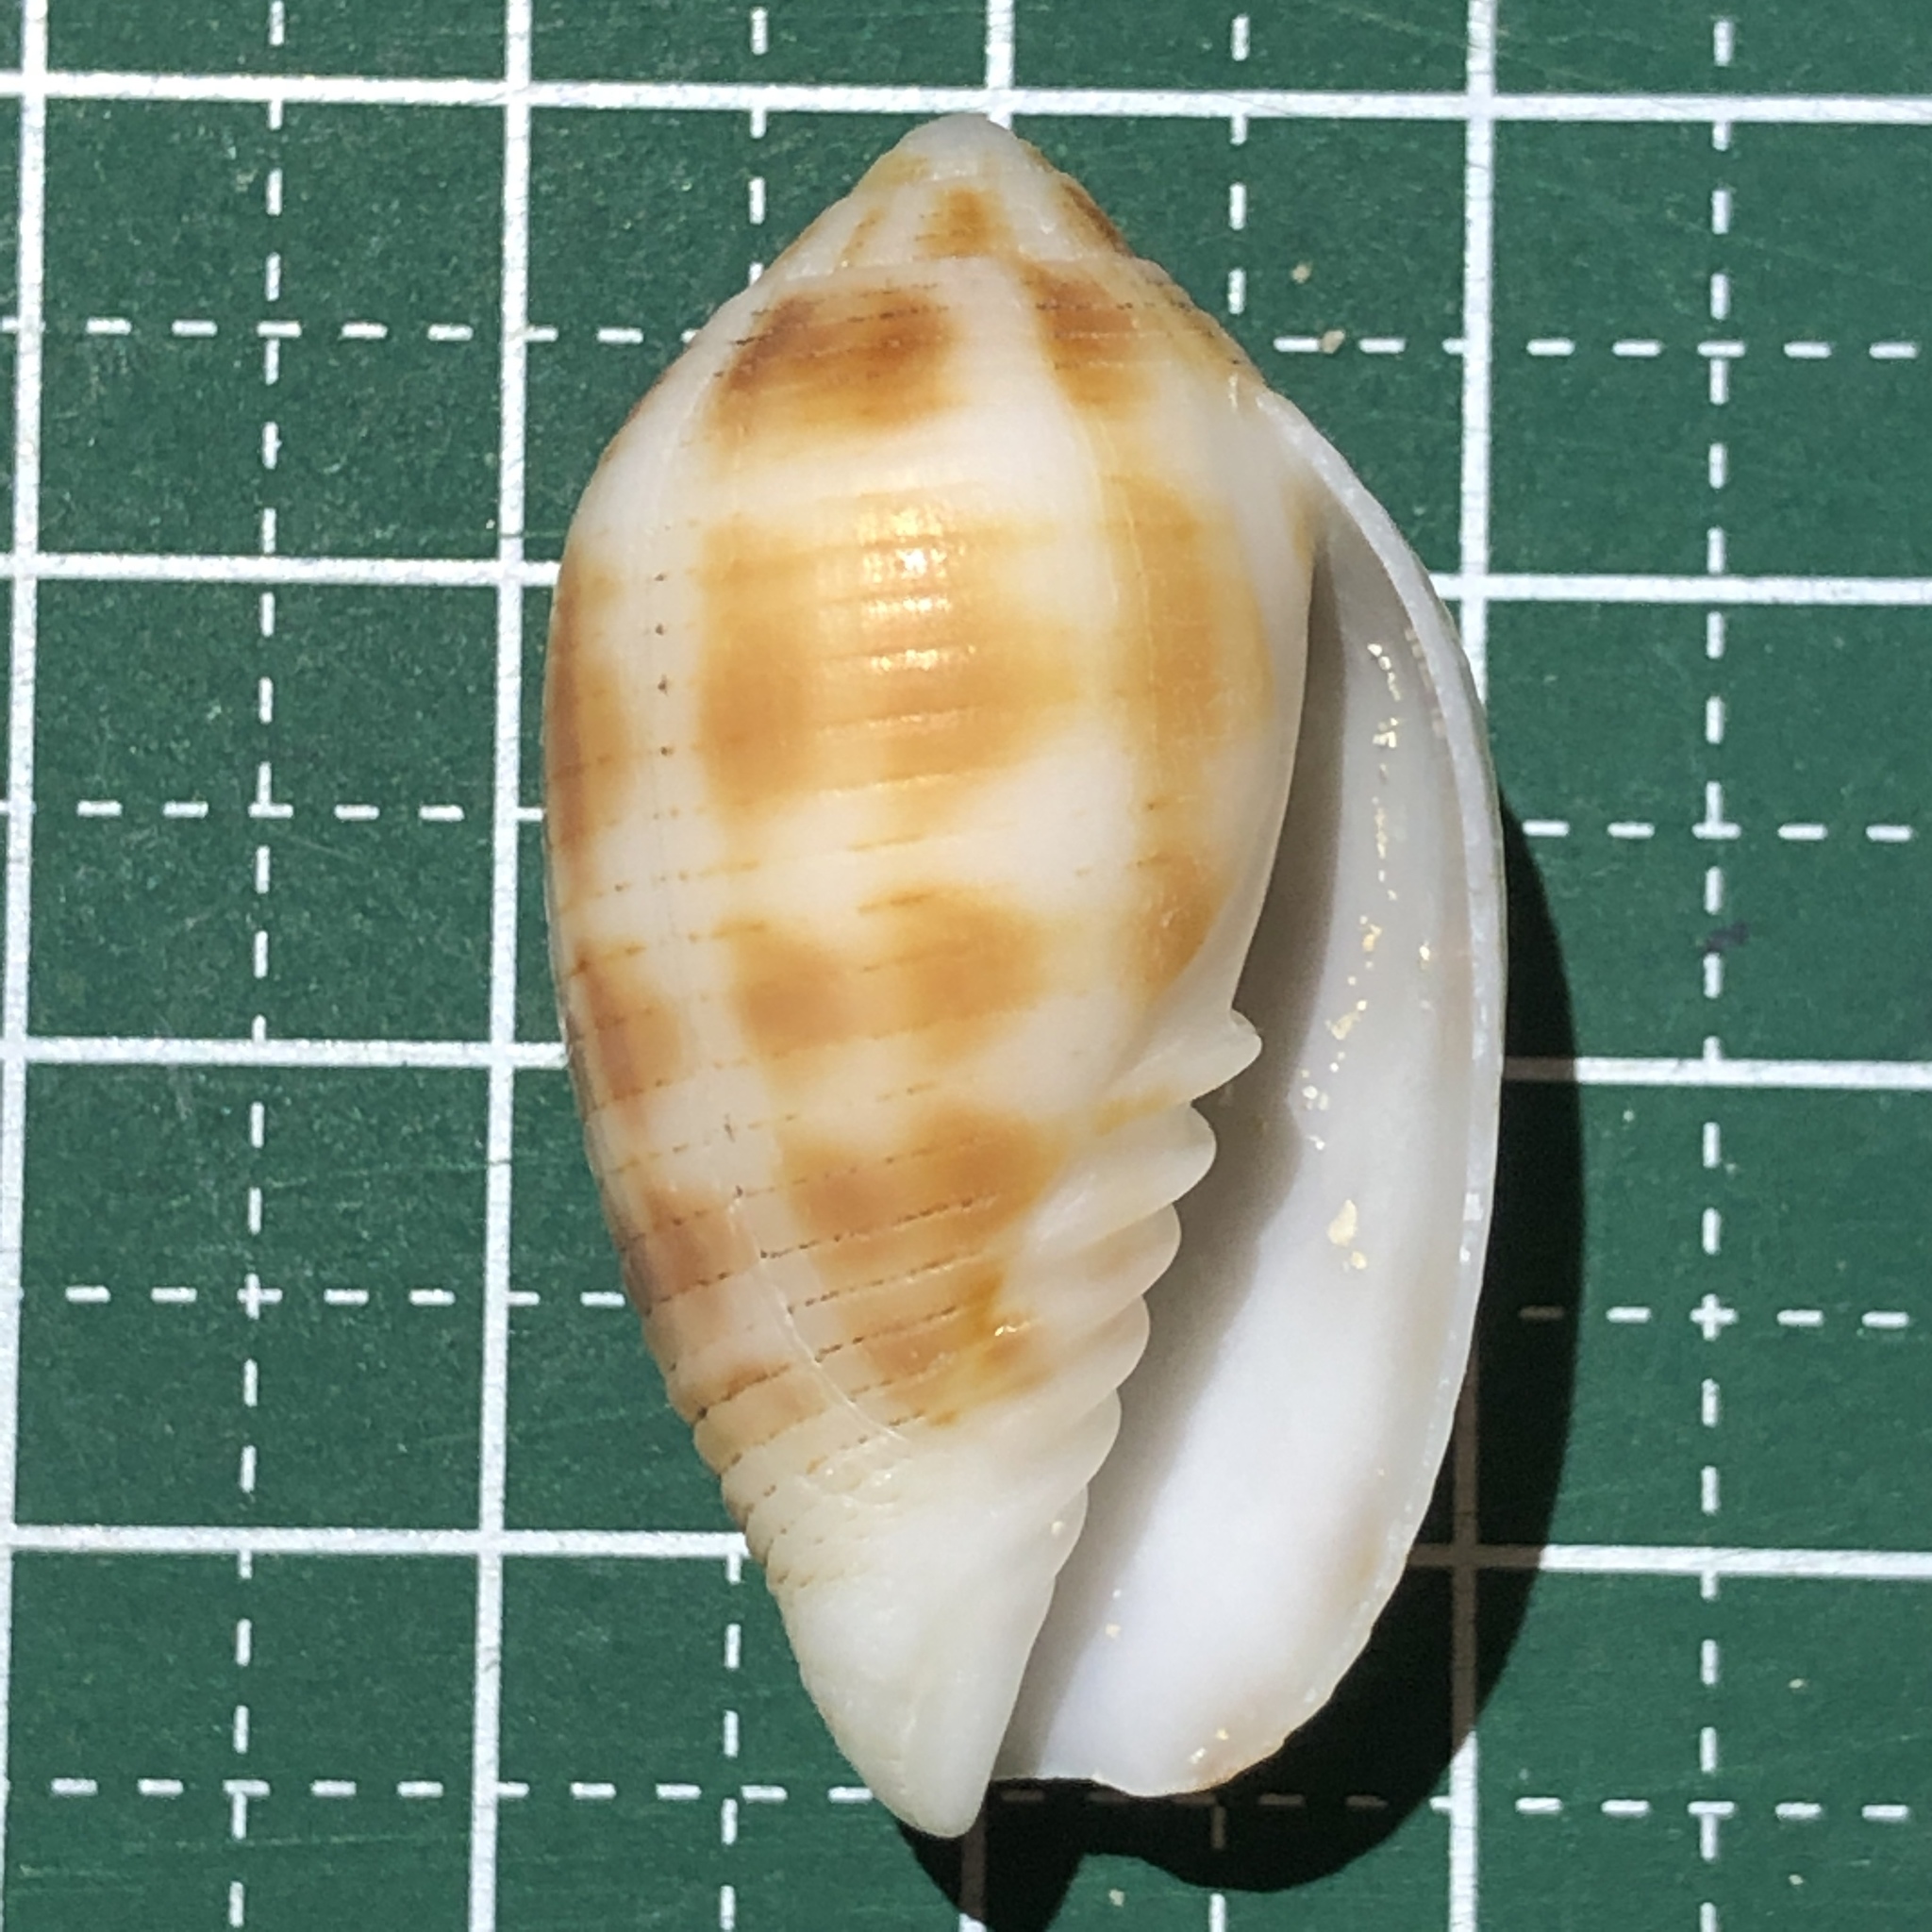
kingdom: Animalia
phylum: Mollusca
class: Gastropoda
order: Neogastropoda
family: Mitridae
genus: Pterygia
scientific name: Pterygia dactylus
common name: Finger miter
